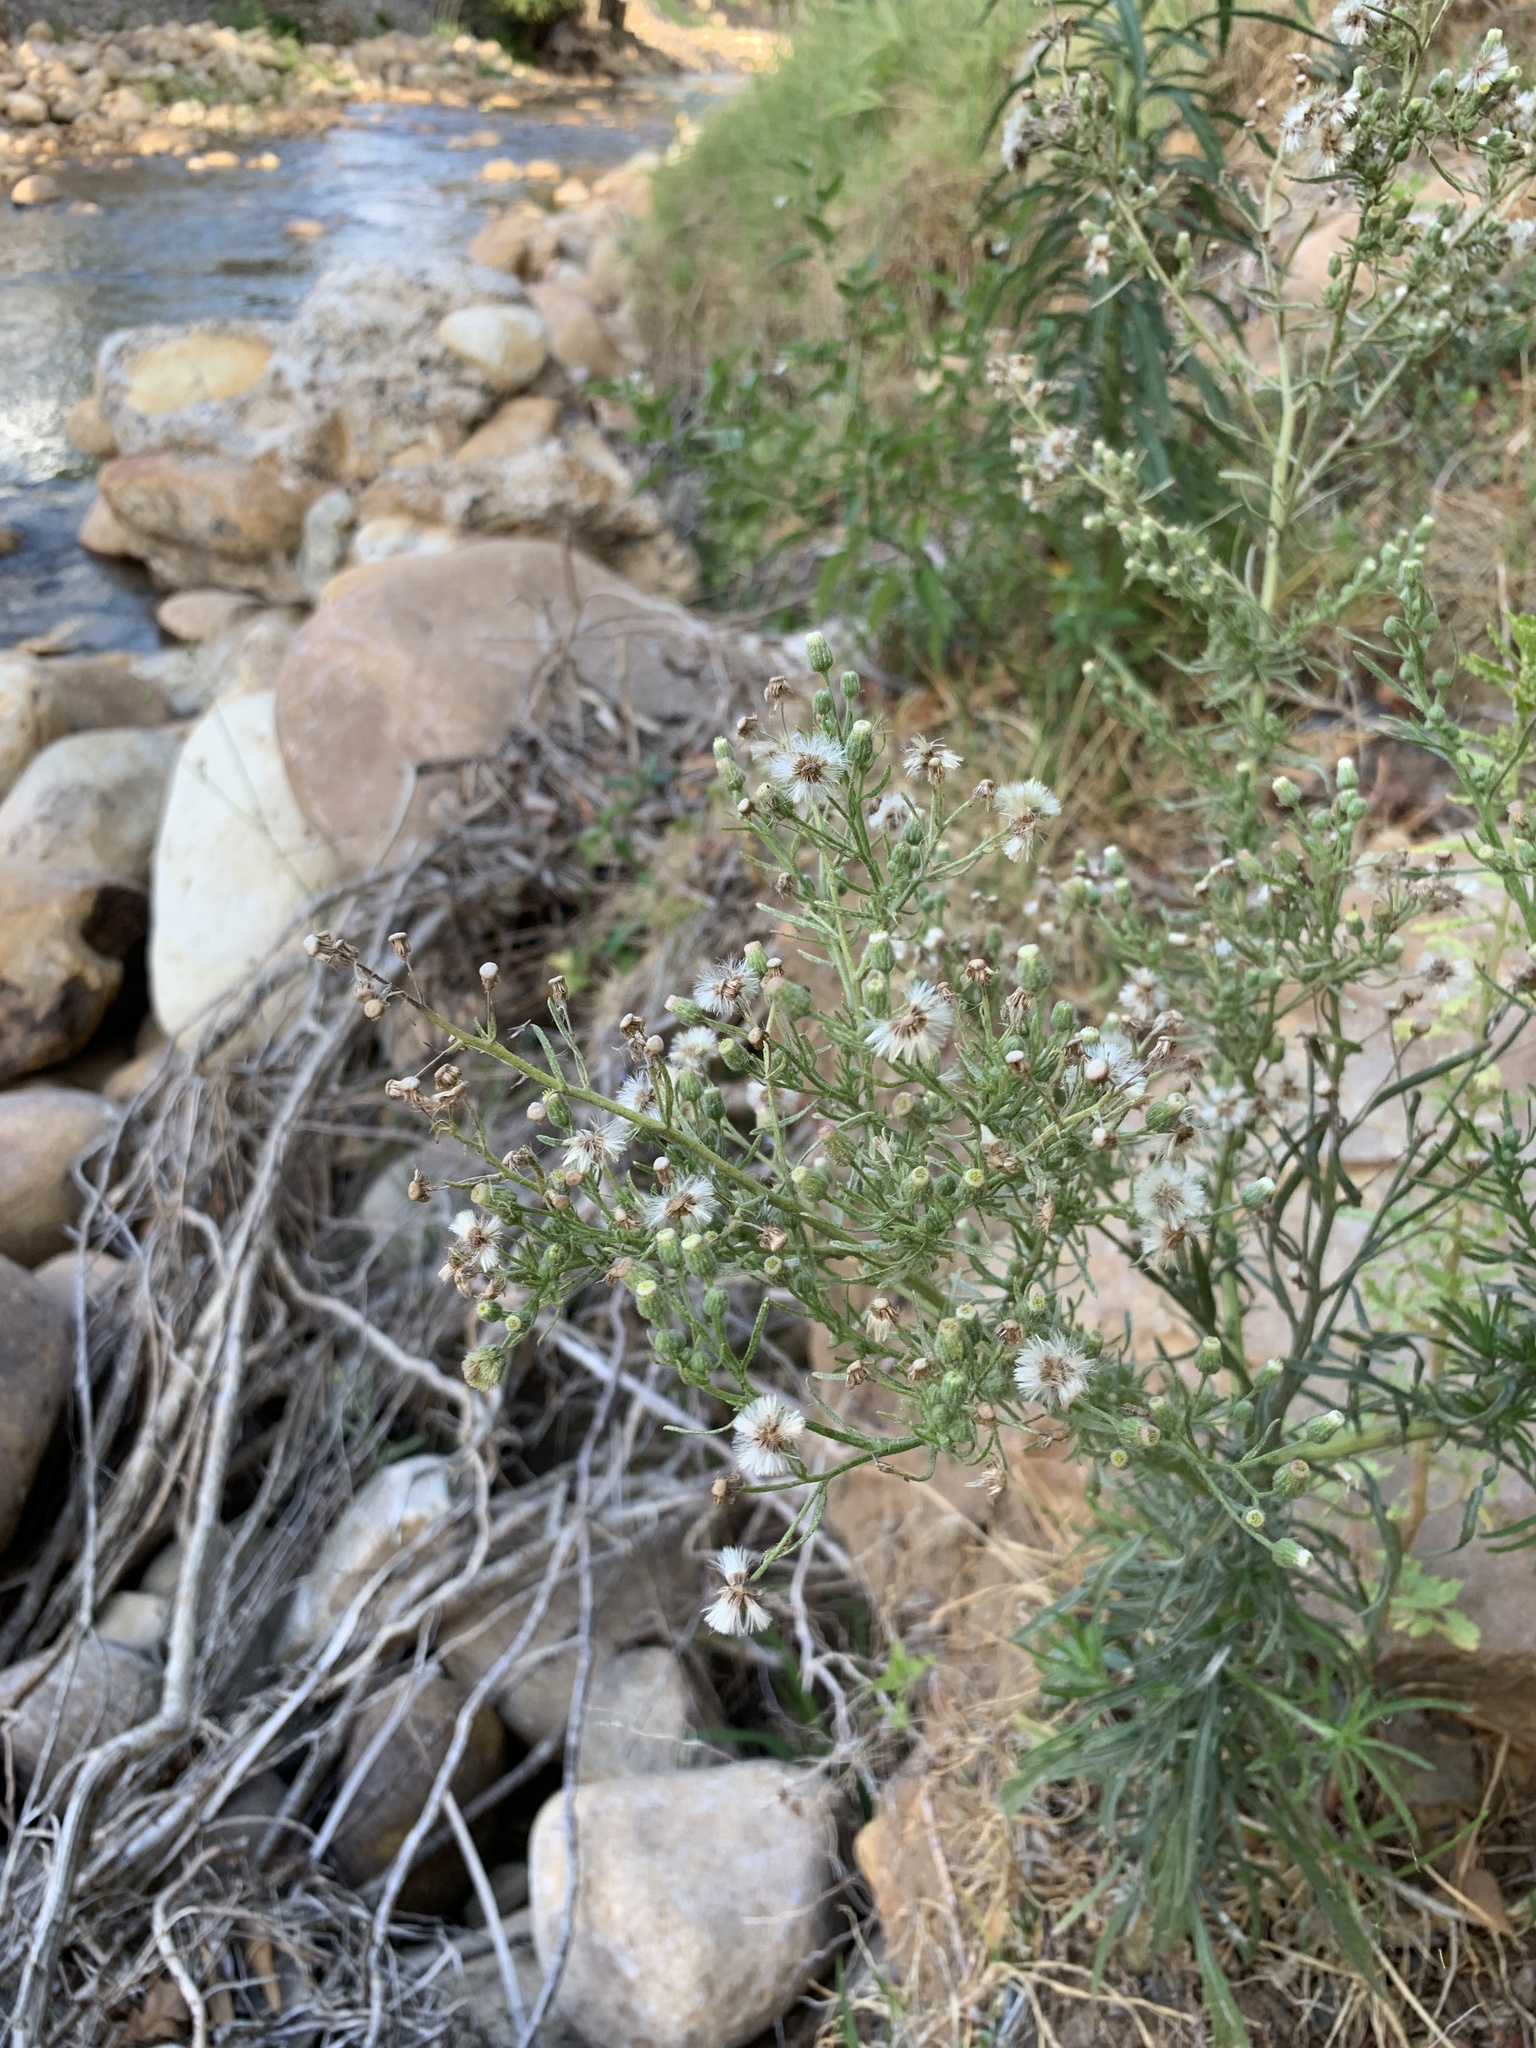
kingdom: Plantae
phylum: Tracheophyta
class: Magnoliopsida
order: Asterales
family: Asteraceae
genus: Erigeron
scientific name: Erigeron bonariensis
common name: Argentine fleabane
